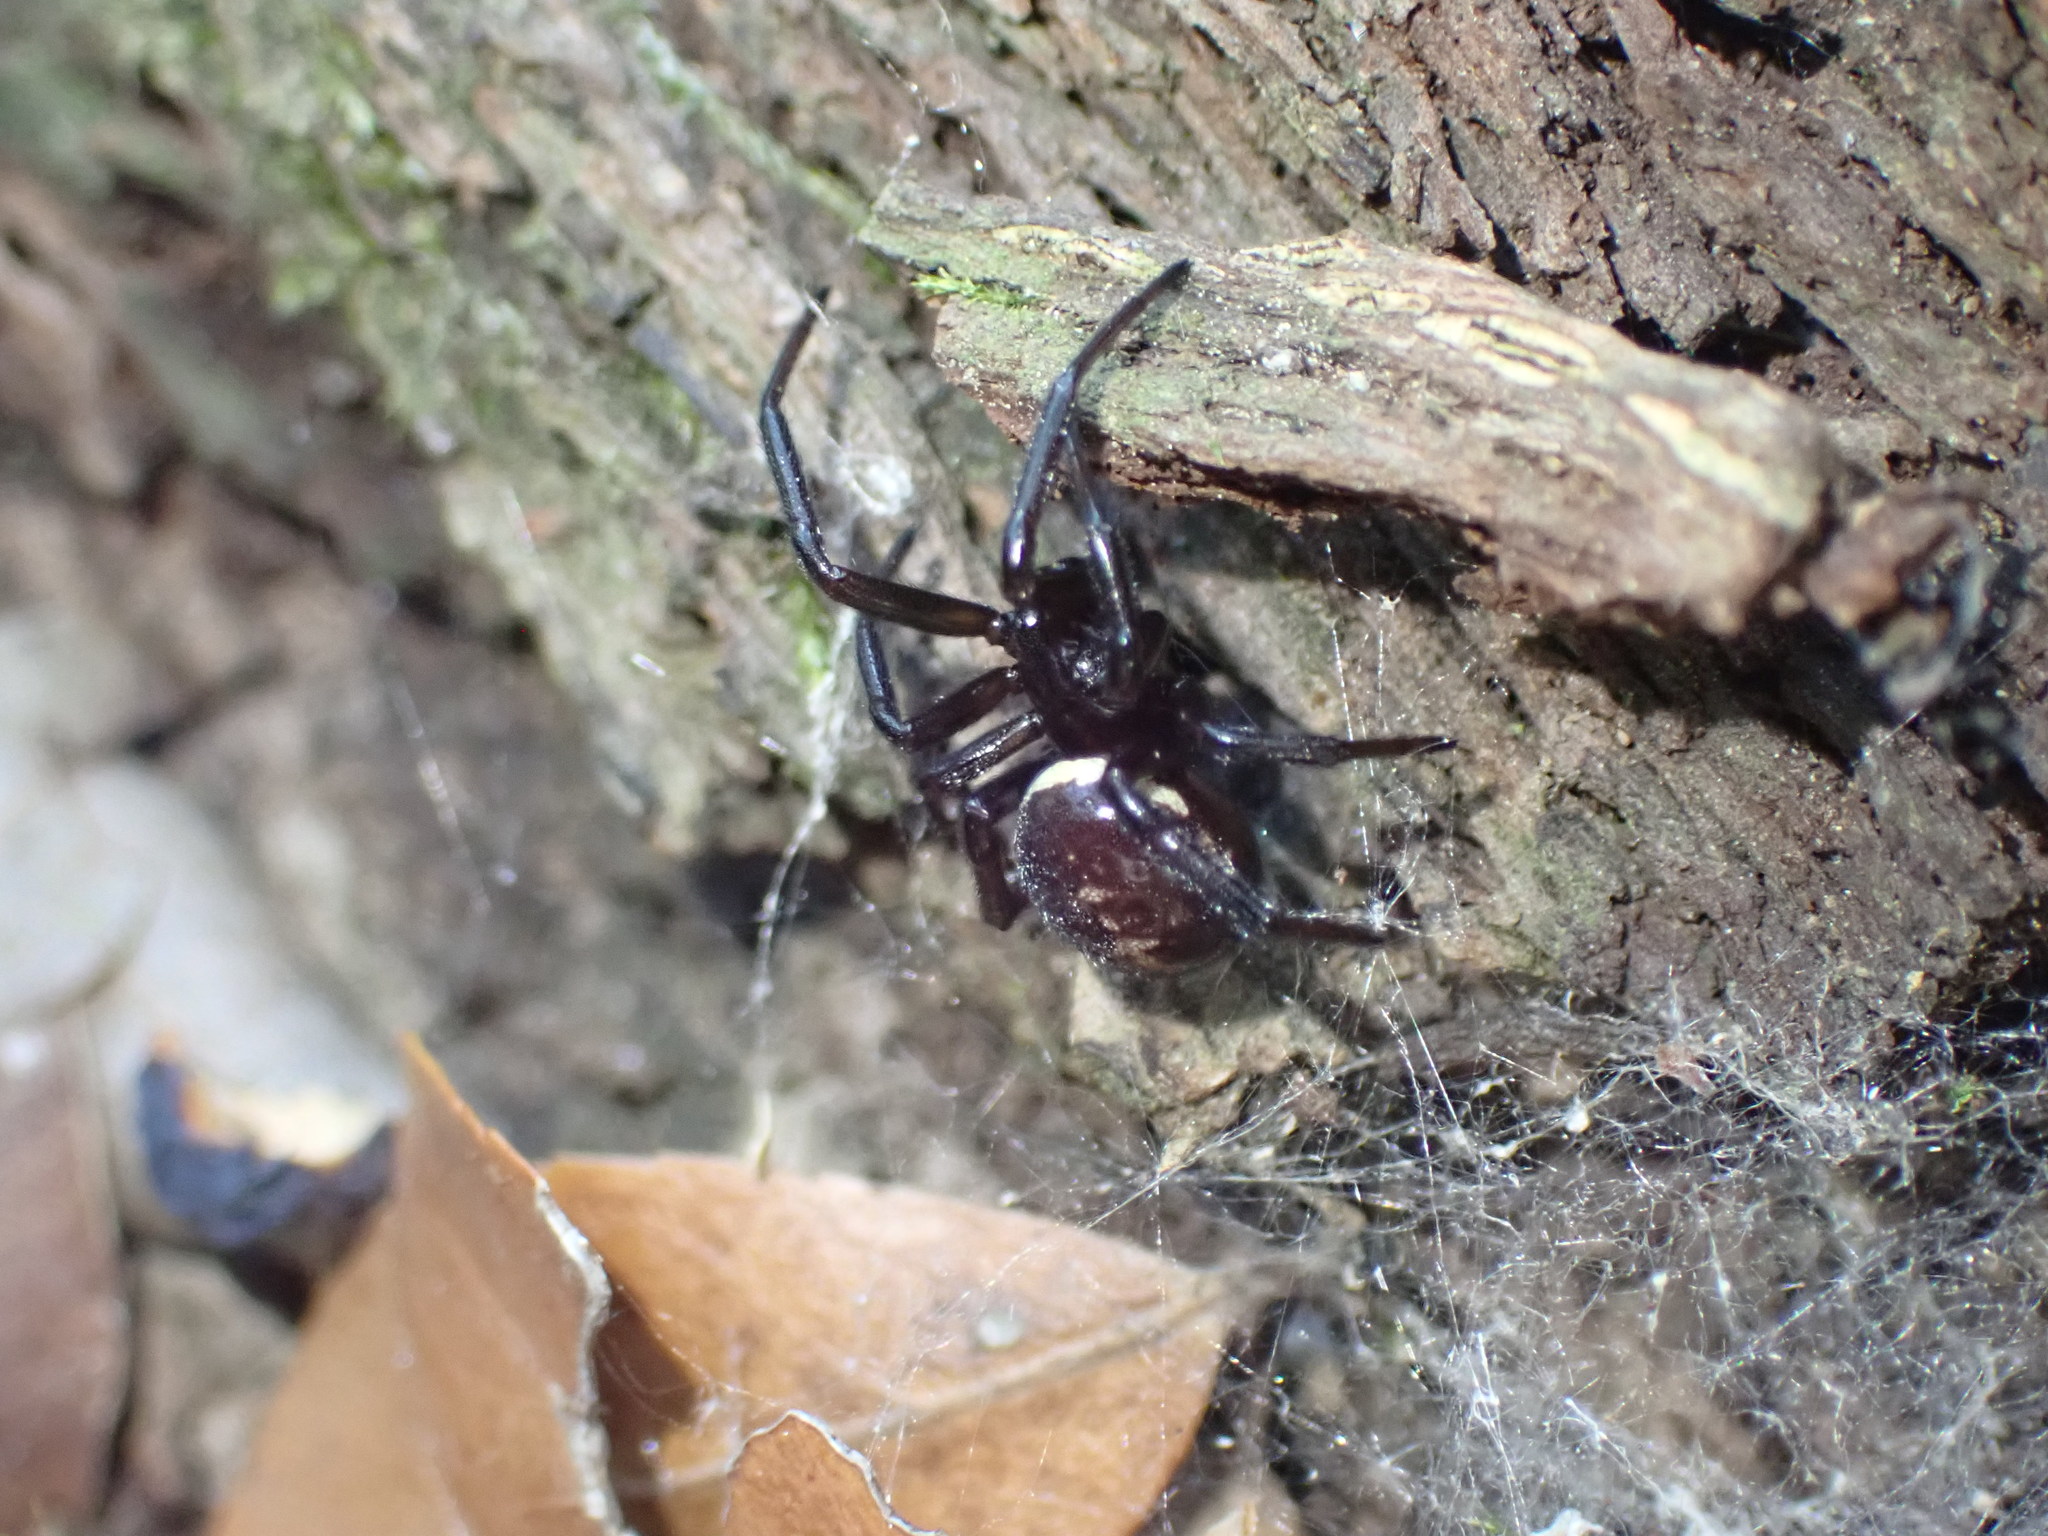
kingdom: Animalia
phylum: Arthropoda
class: Arachnida
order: Araneae
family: Theridiidae
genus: Steatoda
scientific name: Steatoda paykulliana
